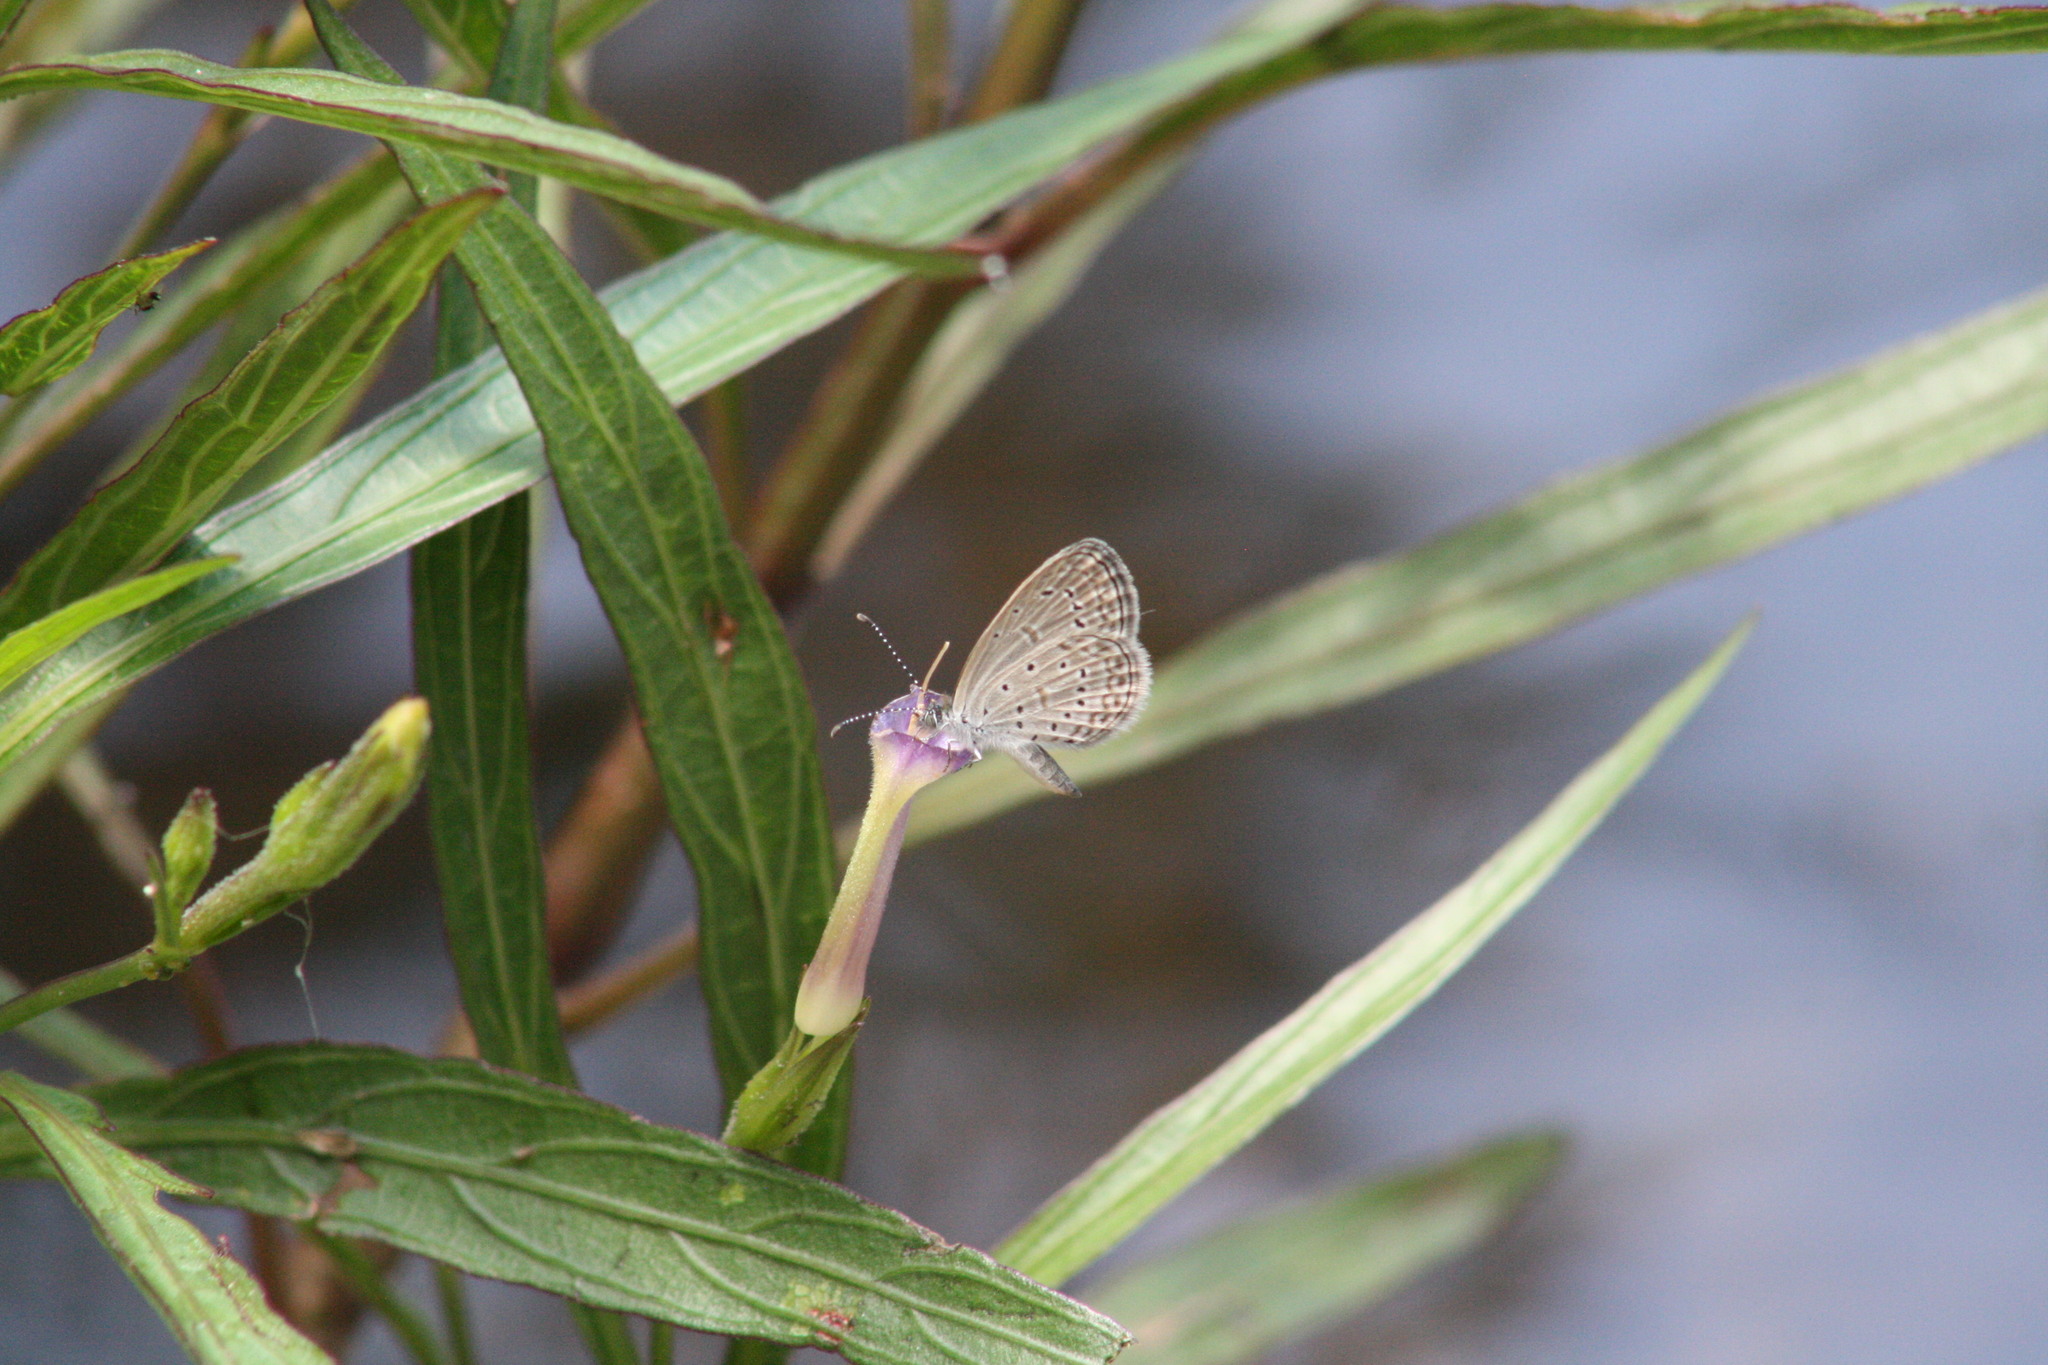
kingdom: Animalia
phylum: Arthropoda
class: Insecta
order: Lepidoptera
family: Lycaenidae
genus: Zizula
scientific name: Zizula hylax
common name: Gaika blue
